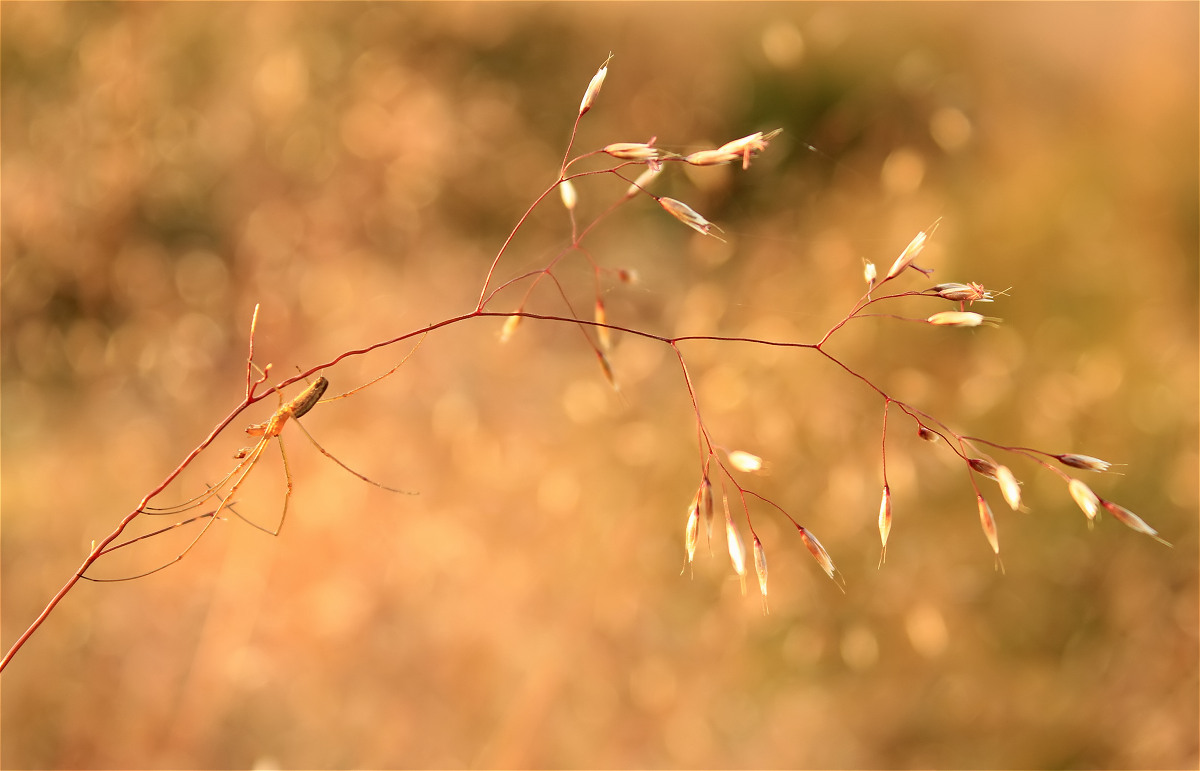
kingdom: Plantae
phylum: Tracheophyta
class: Liliopsida
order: Poales
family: Poaceae
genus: Avenella
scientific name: Avenella flexuosa
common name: Wavy hairgrass
